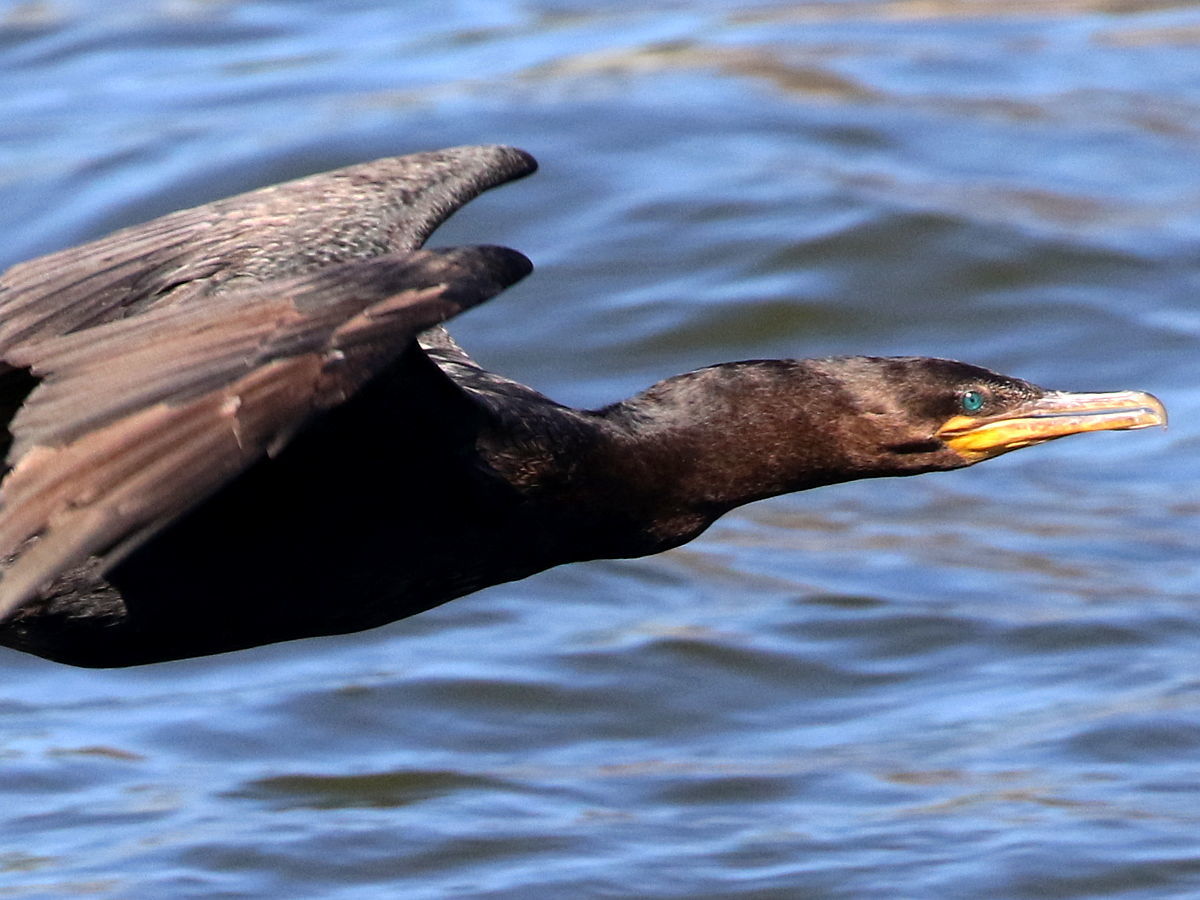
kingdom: Animalia
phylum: Chordata
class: Aves
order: Suliformes
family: Phalacrocoracidae
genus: Phalacrocorax
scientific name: Phalacrocorax brasilianus
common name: Neotropic cormorant
